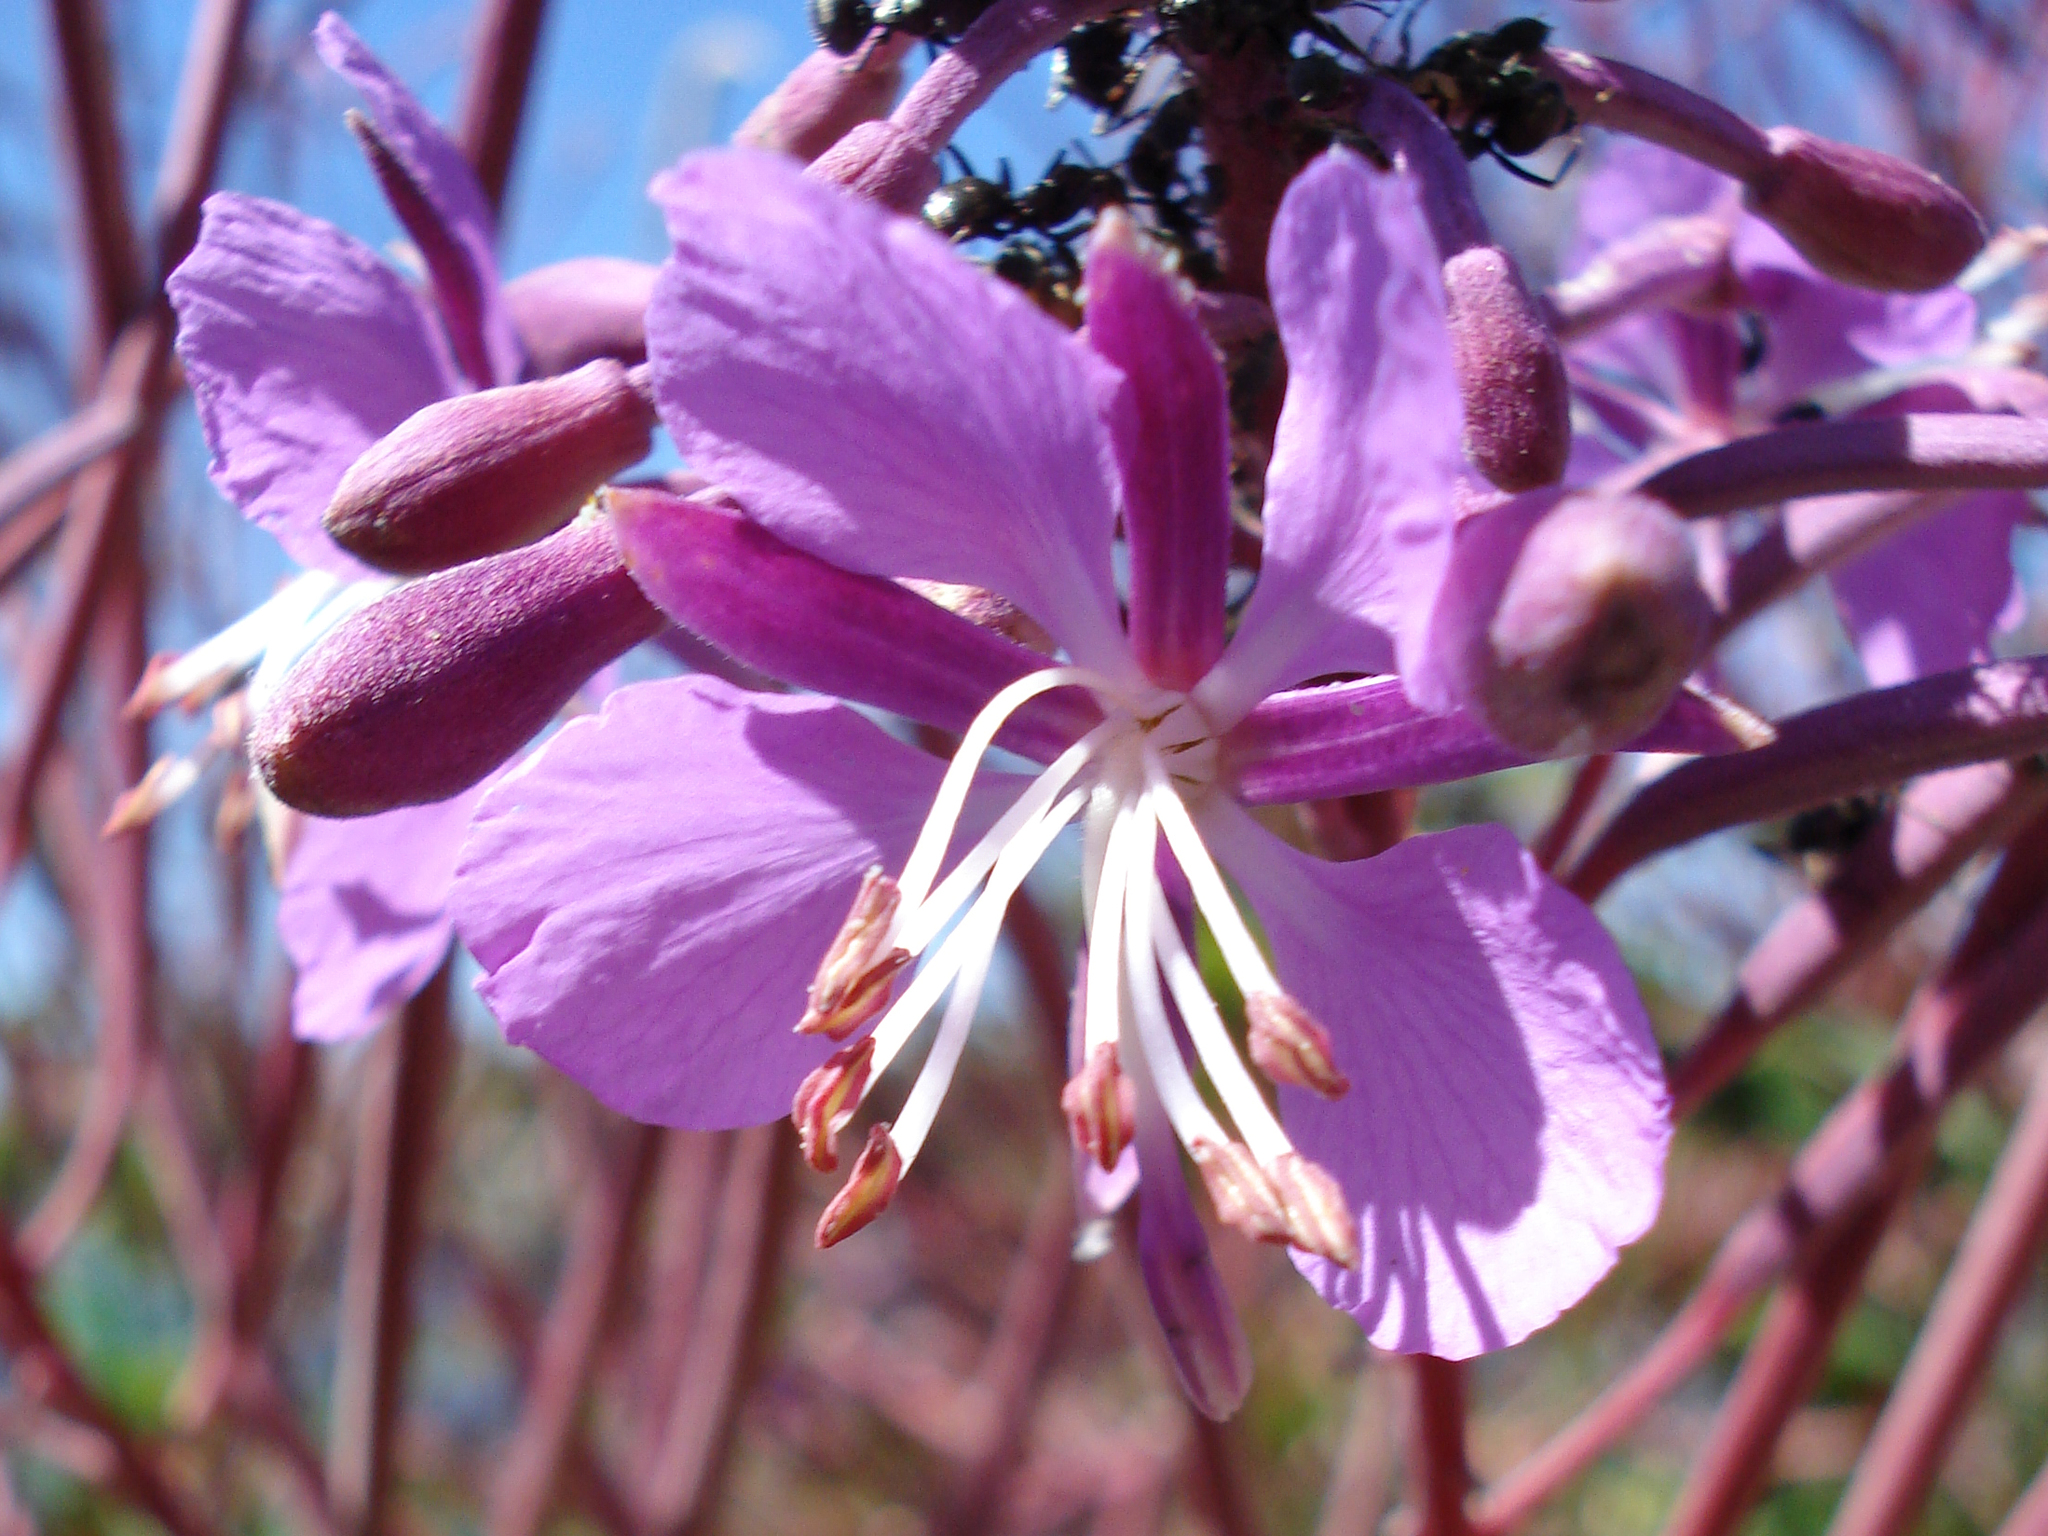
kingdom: Plantae
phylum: Tracheophyta
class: Magnoliopsida
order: Myrtales
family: Onagraceae
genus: Chamaenerion
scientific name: Chamaenerion angustifolium
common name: Fireweed
